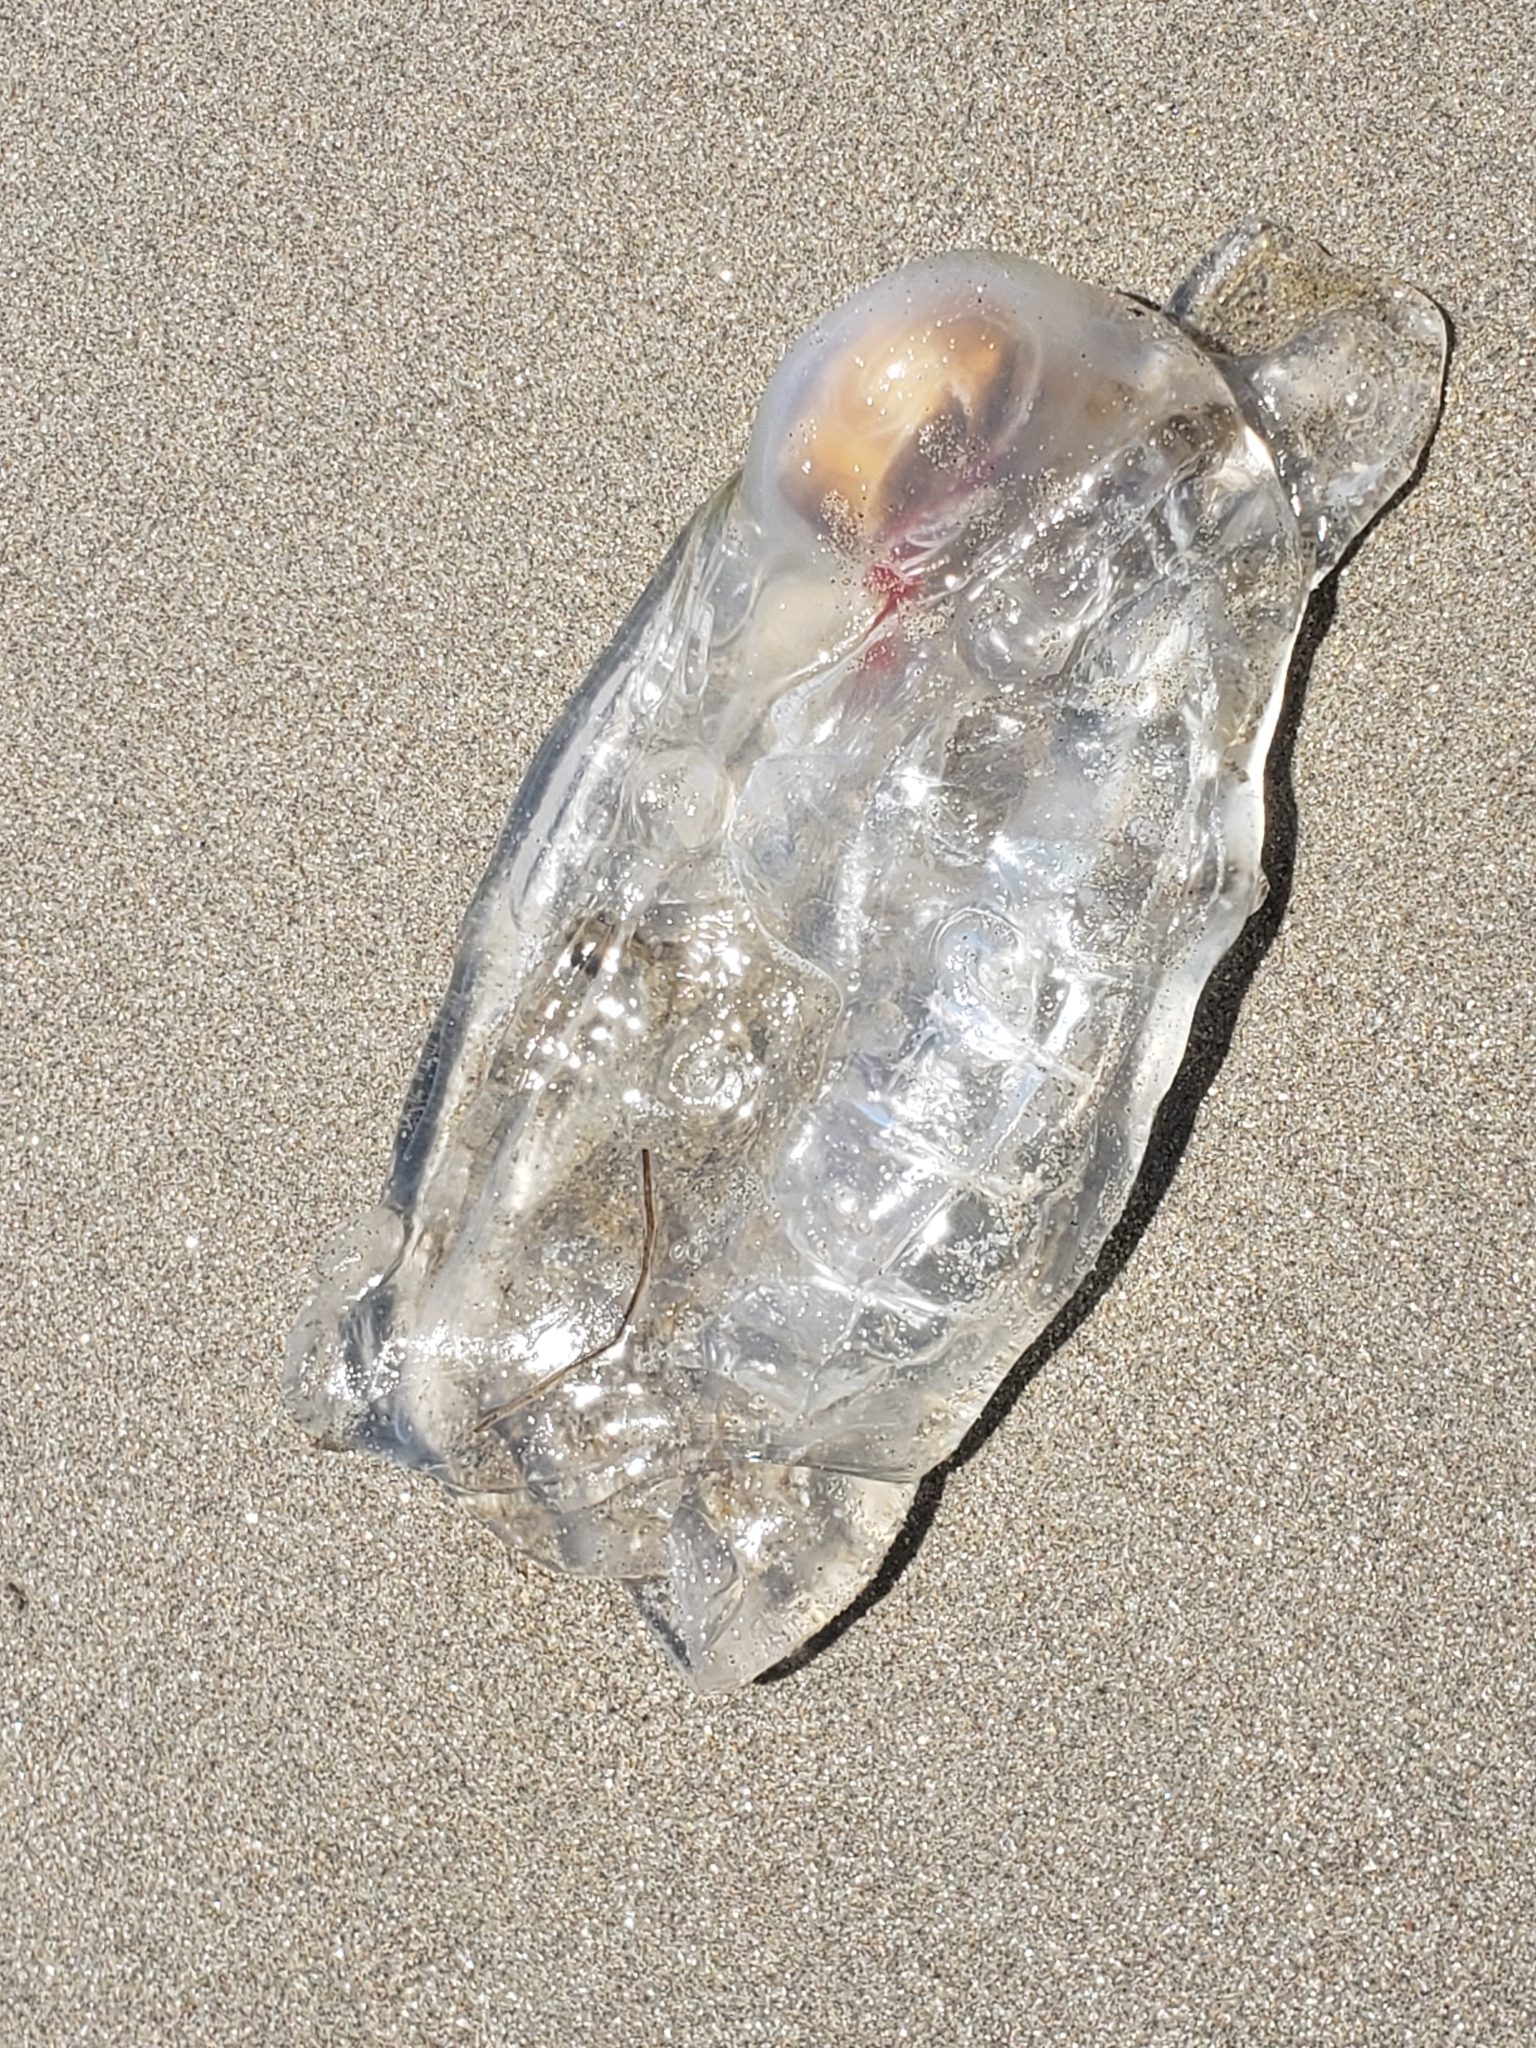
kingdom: Animalia
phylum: Chordata
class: Thaliacea
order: Salpida
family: Salpidae
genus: Thetys
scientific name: Thetys vagina
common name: Vagina salp
